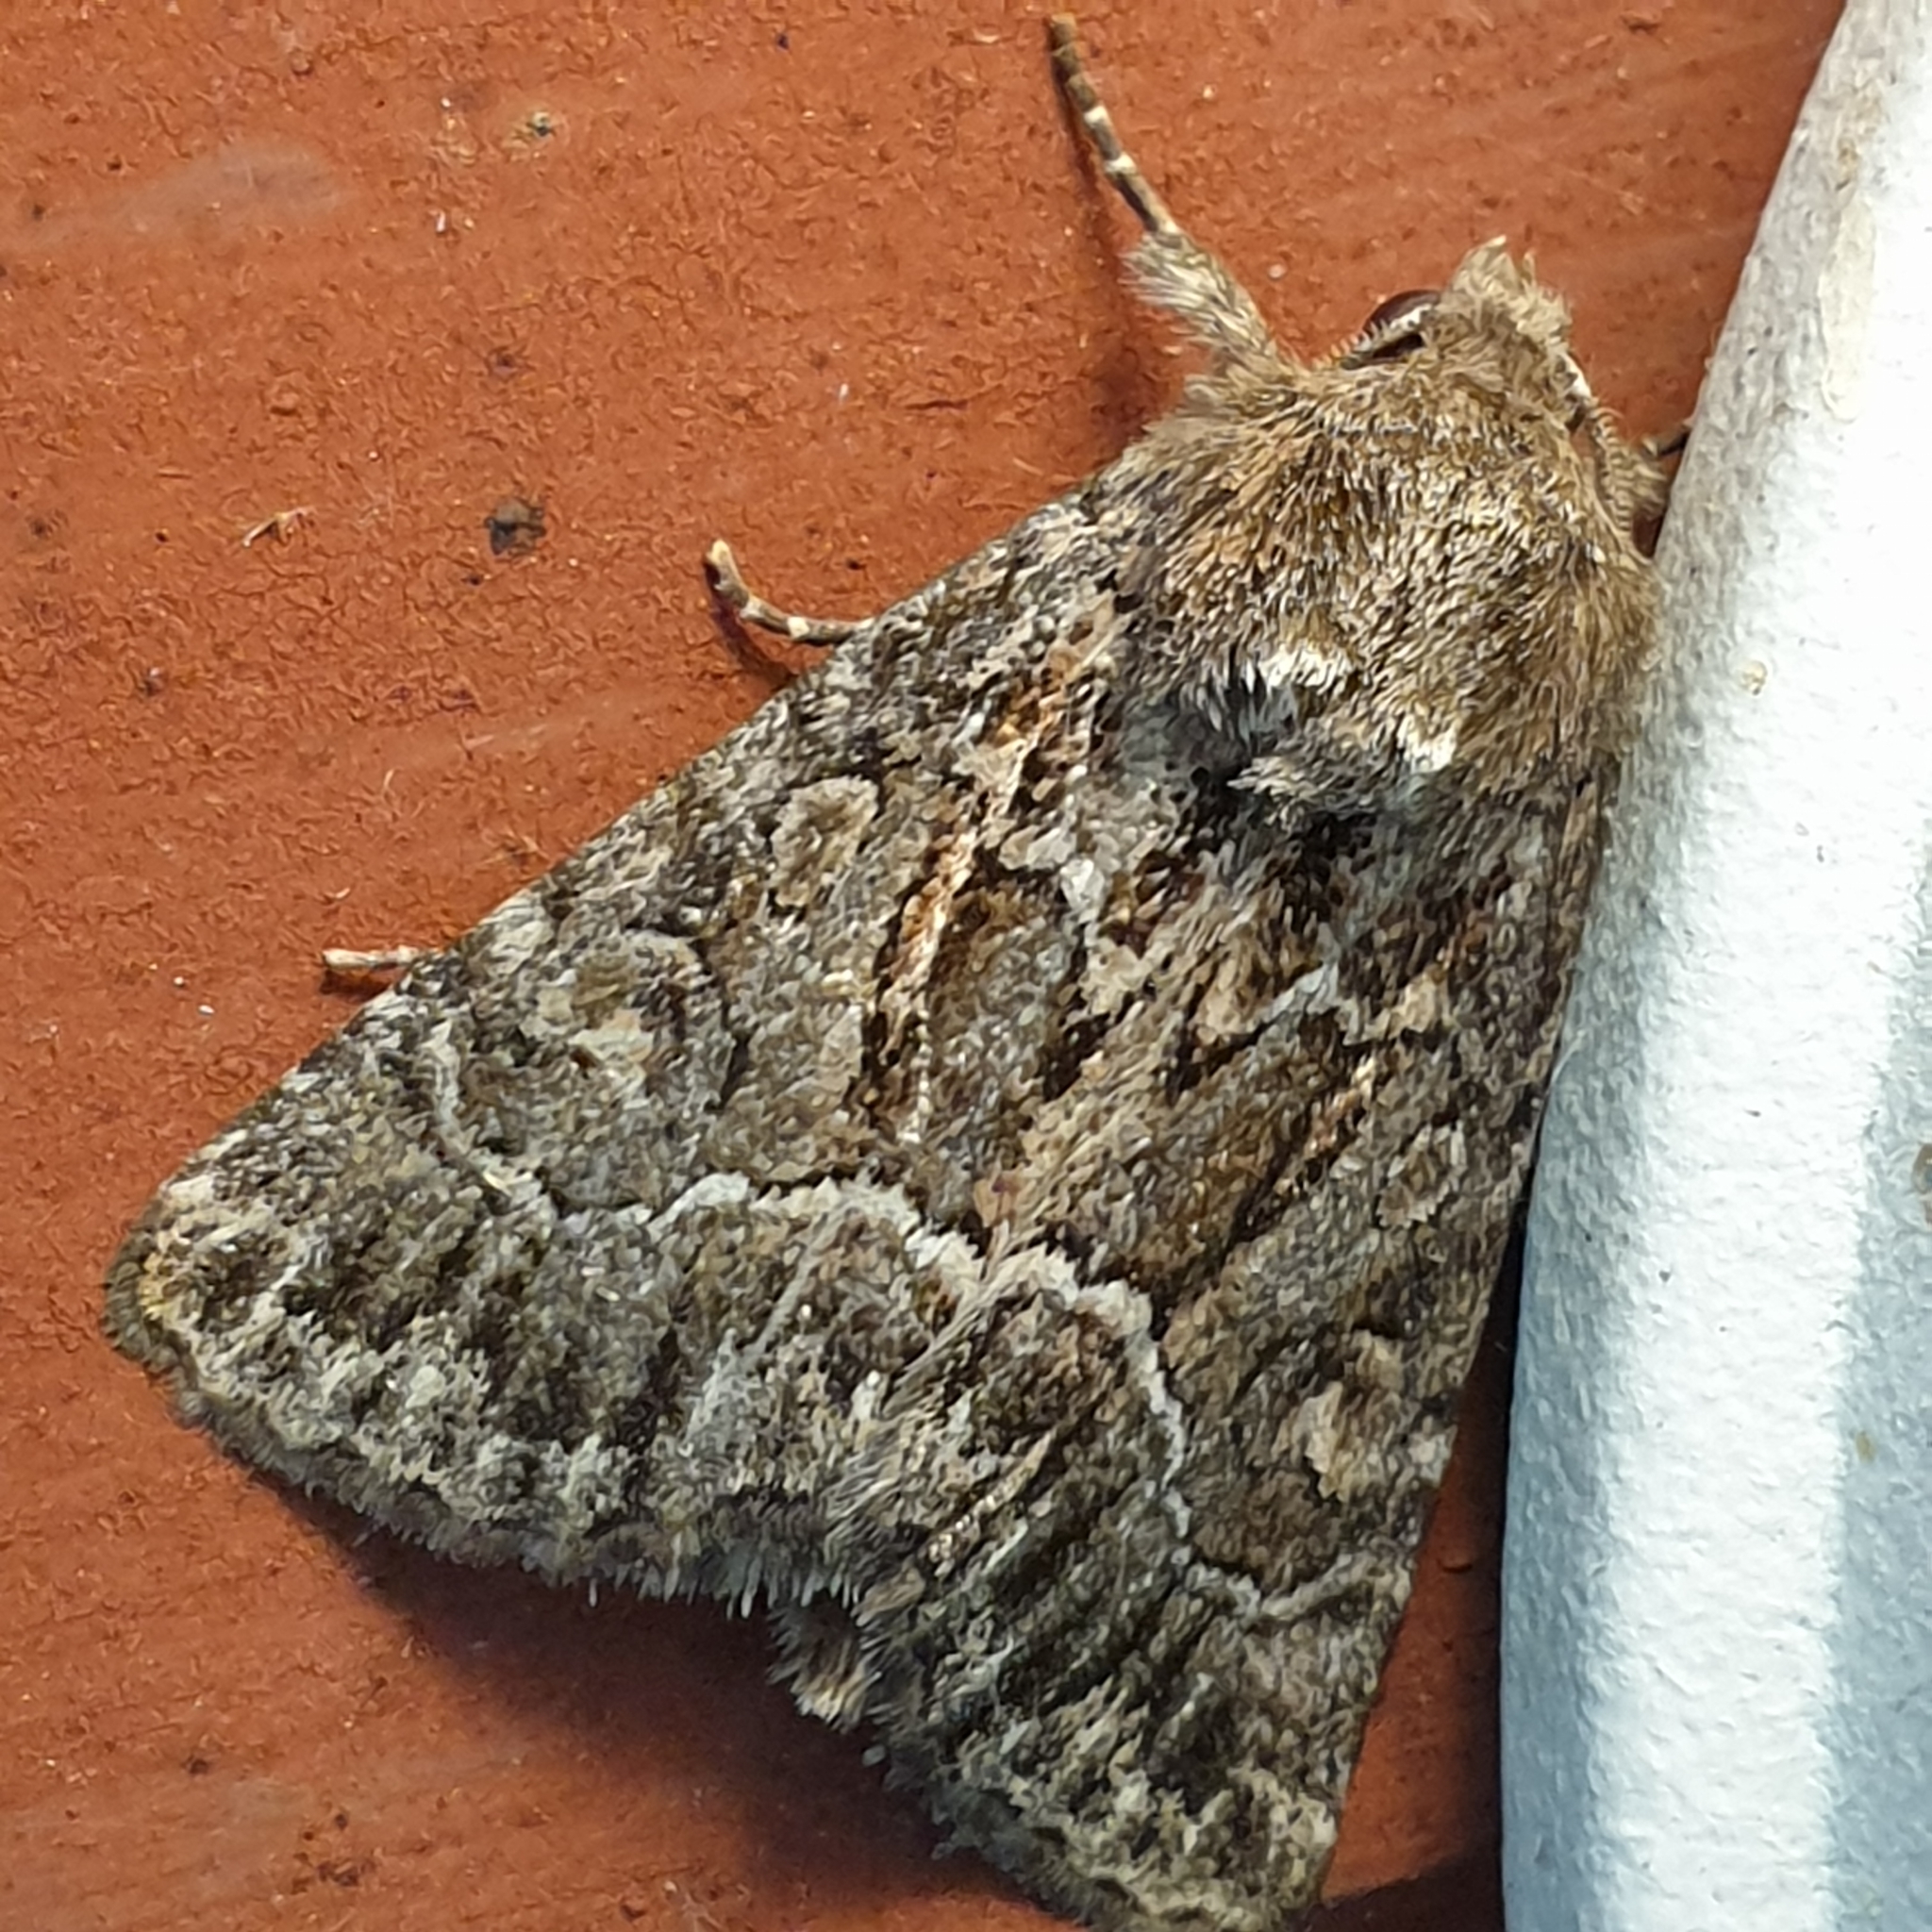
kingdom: Animalia
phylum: Arthropoda
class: Insecta
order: Lepidoptera
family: Noctuidae
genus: Thalpophila
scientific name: Thalpophila matura
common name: Straw underwing
